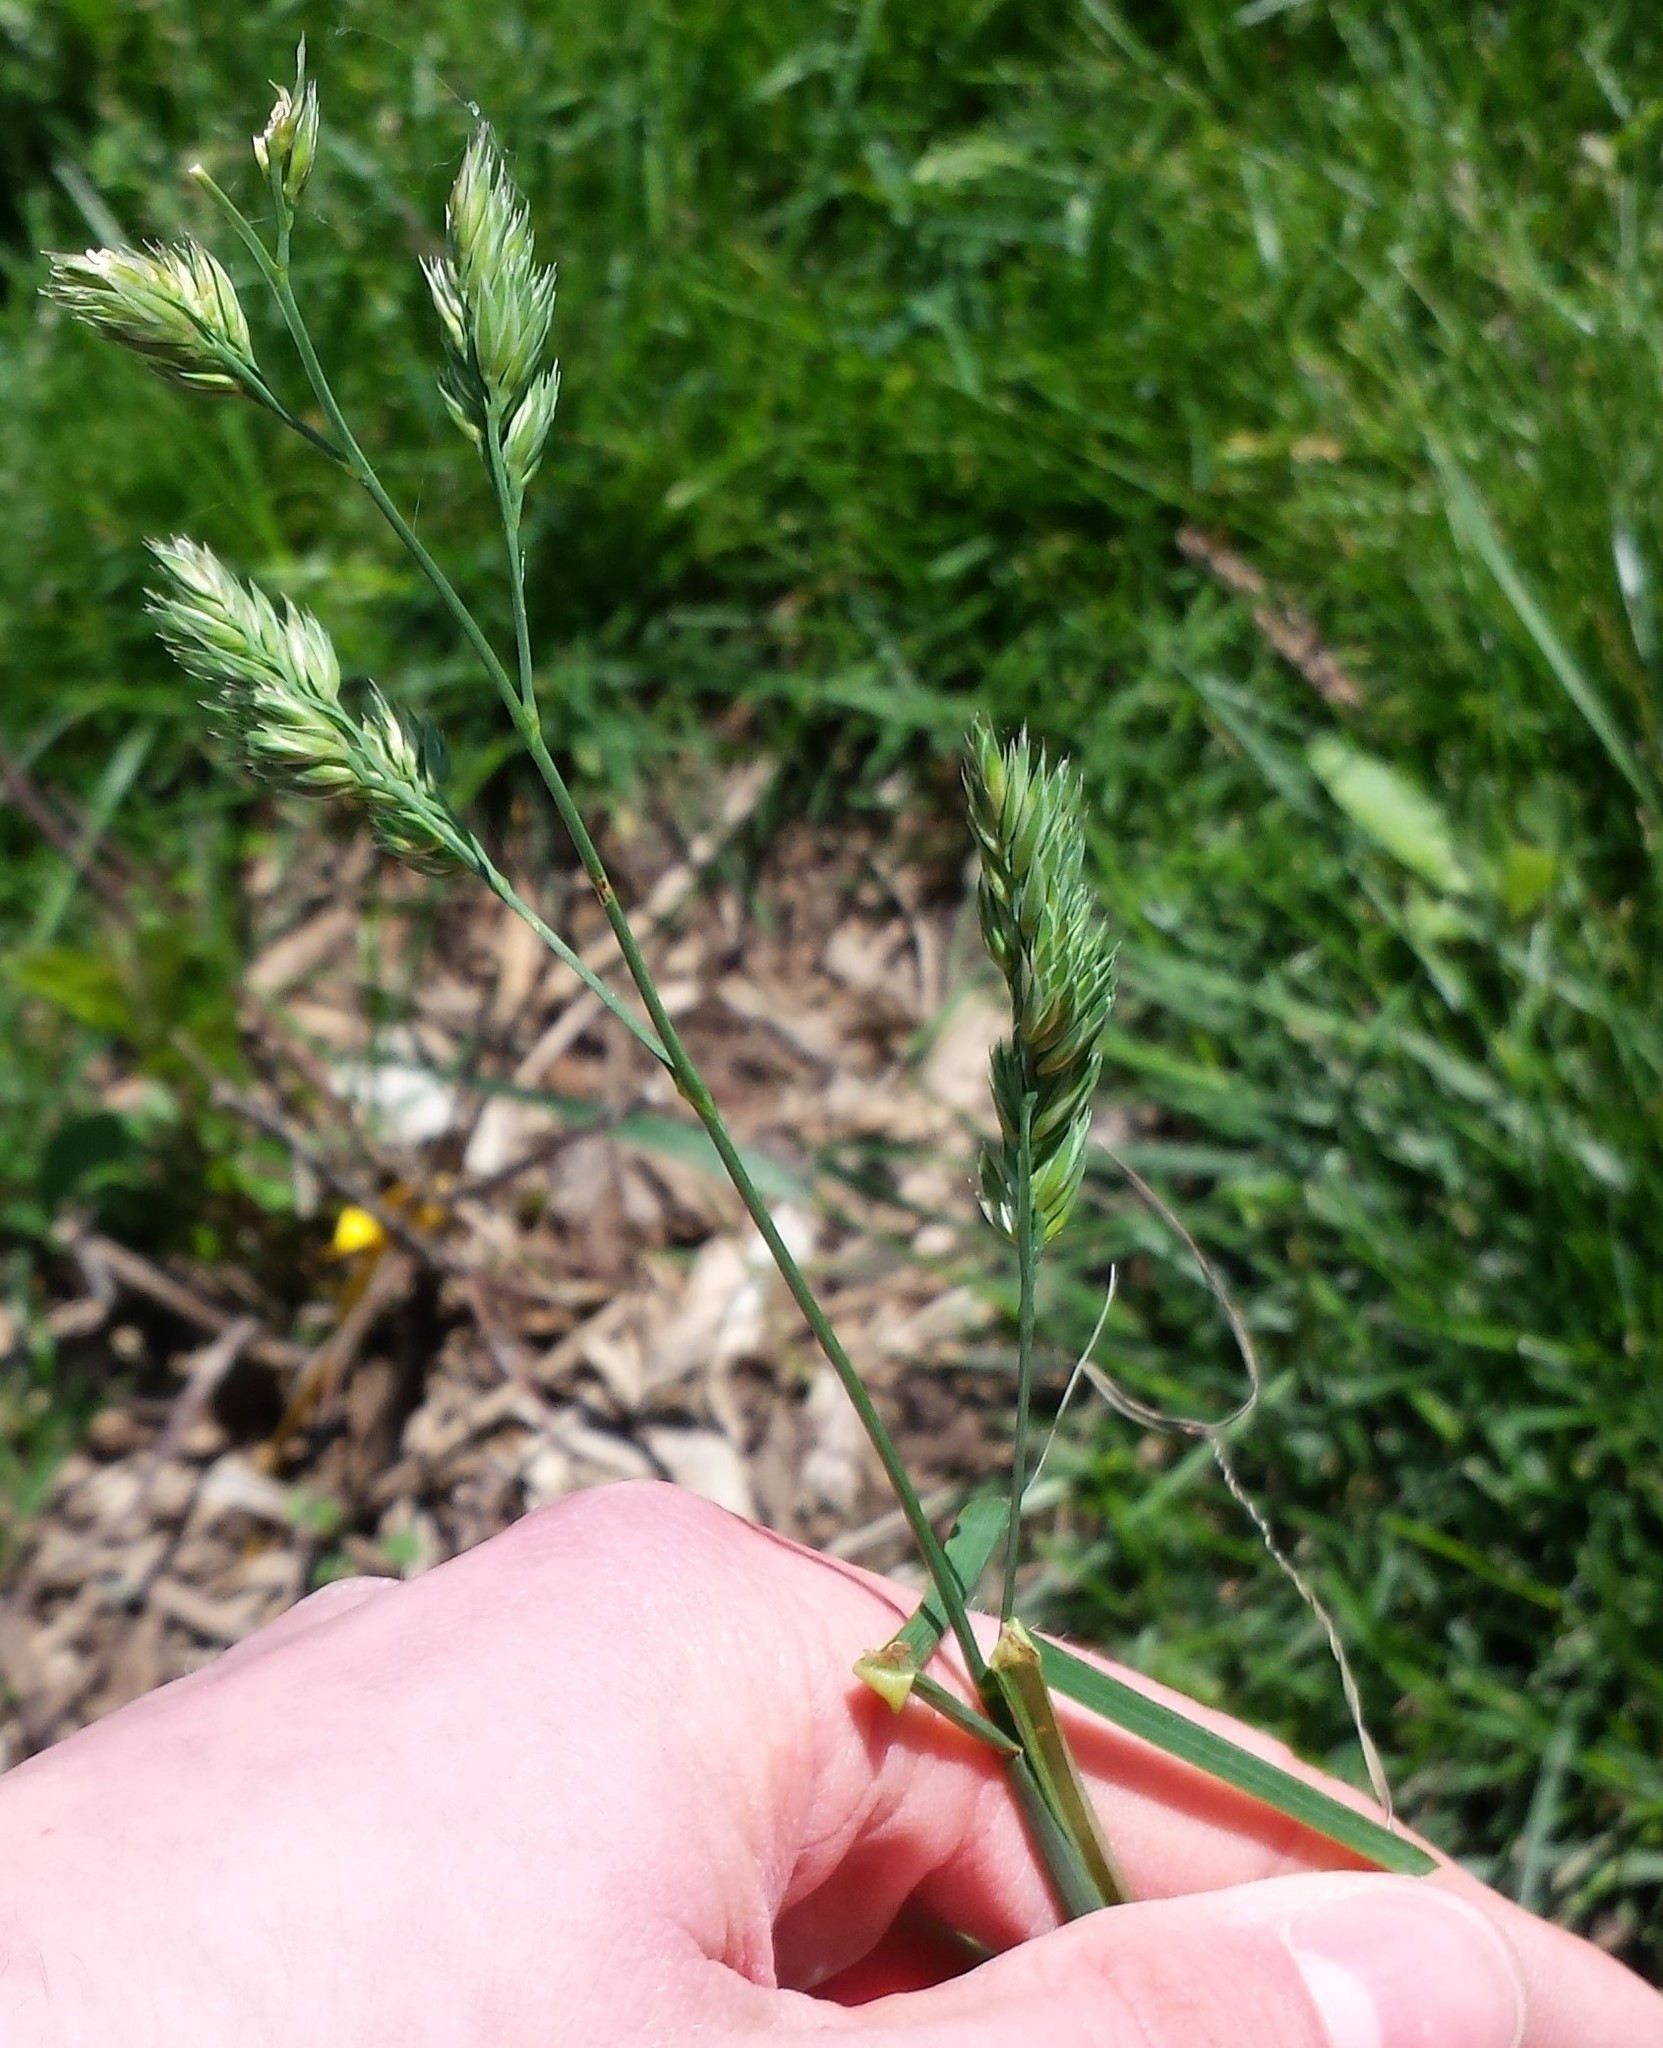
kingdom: Plantae
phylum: Tracheophyta
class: Liliopsida
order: Poales
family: Poaceae
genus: Dactylis
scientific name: Dactylis glomerata
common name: Orchardgrass
